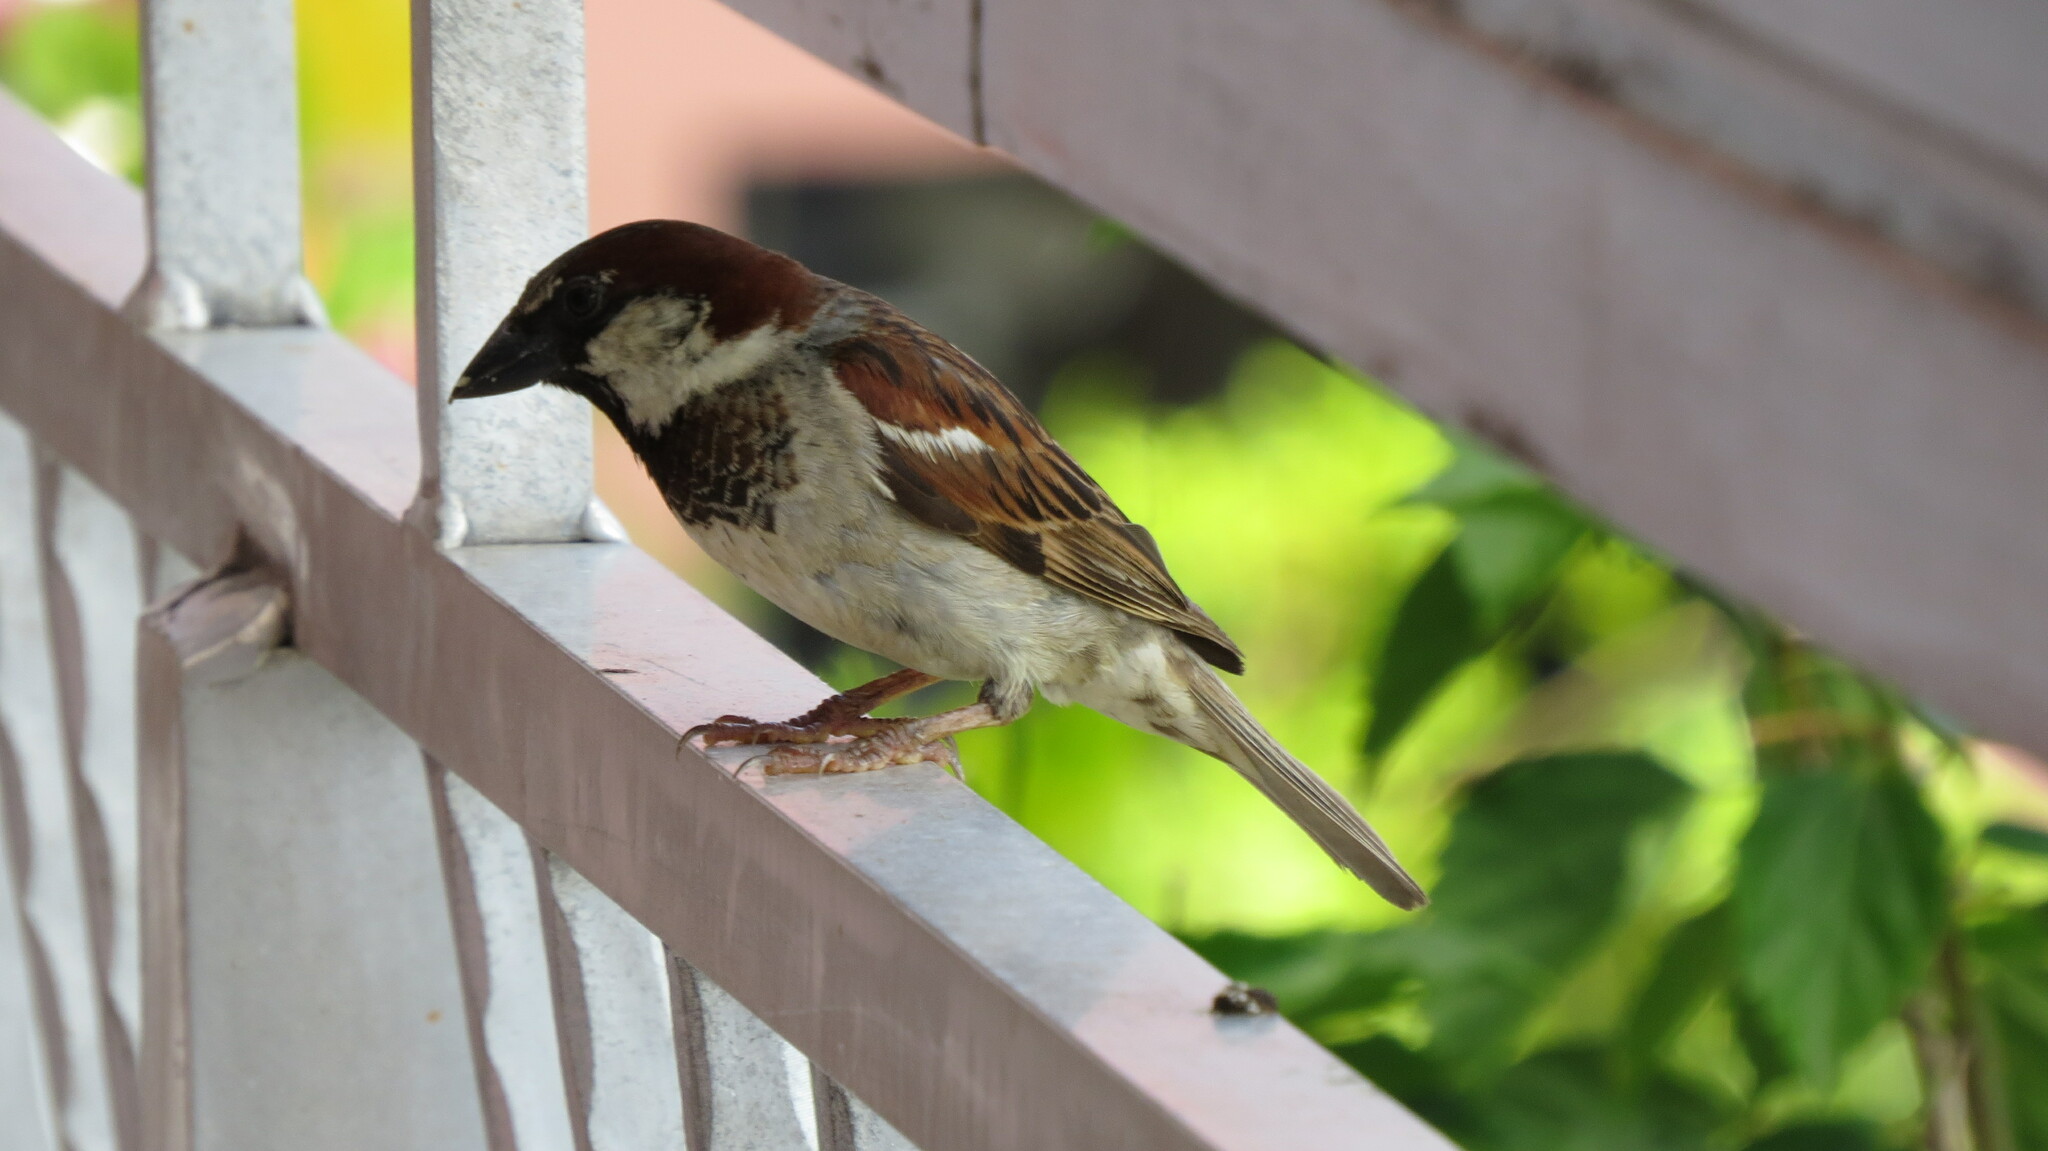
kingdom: Animalia
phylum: Chordata
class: Aves
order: Passeriformes
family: Passeridae
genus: Passer
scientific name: Passer domesticus
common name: House sparrow
